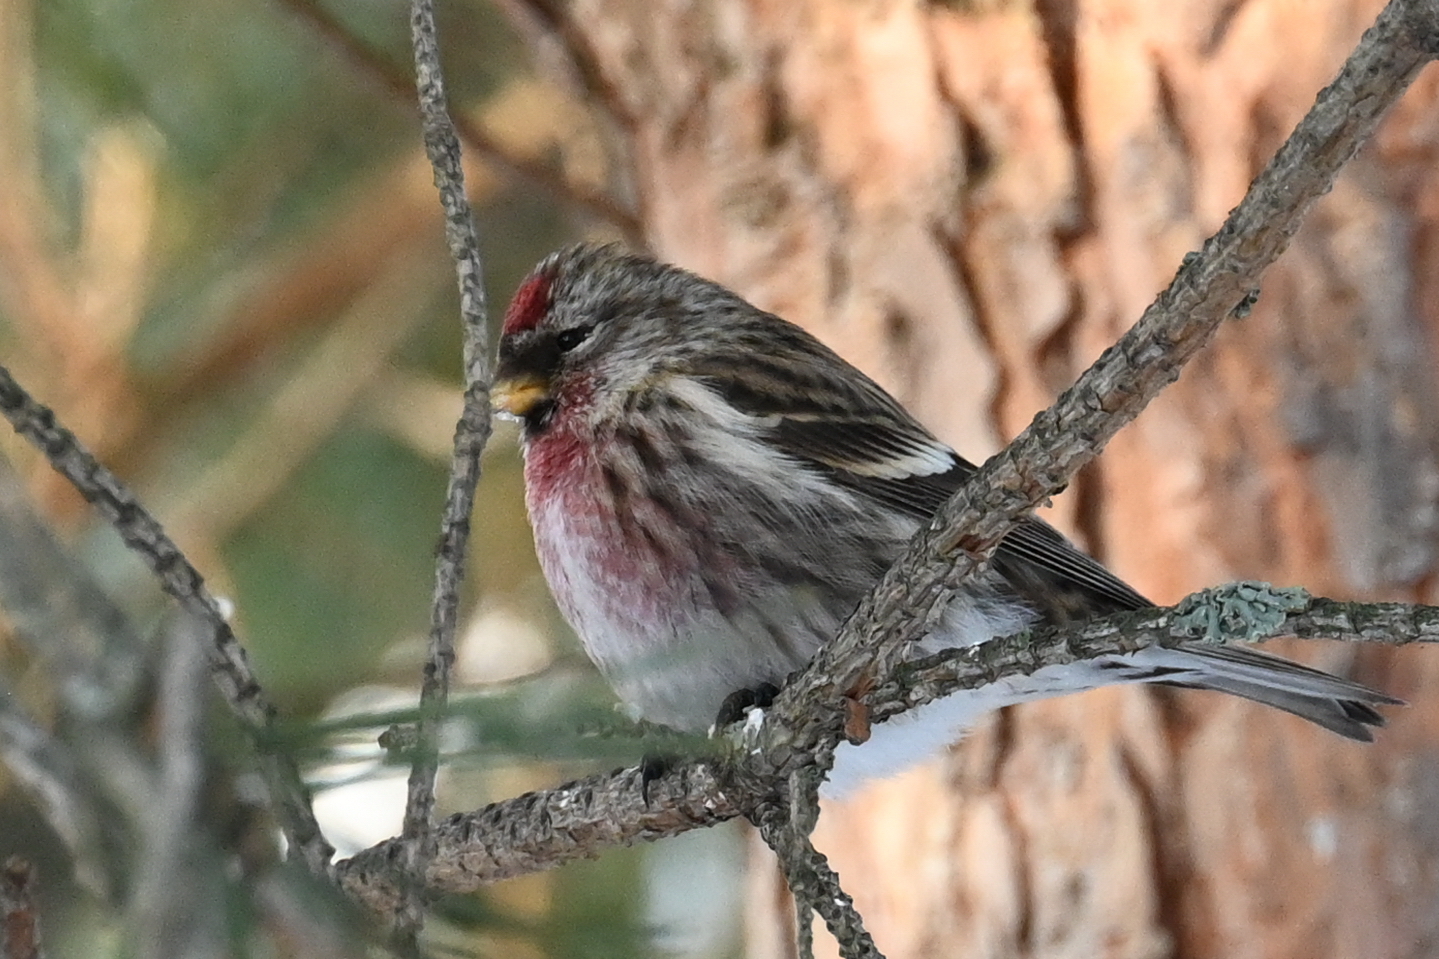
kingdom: Animalia
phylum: Chordata
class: Aves
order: Passeriformes
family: Fringillidae
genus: Acanthis
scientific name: Acanthis flammea
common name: Common redpoll
